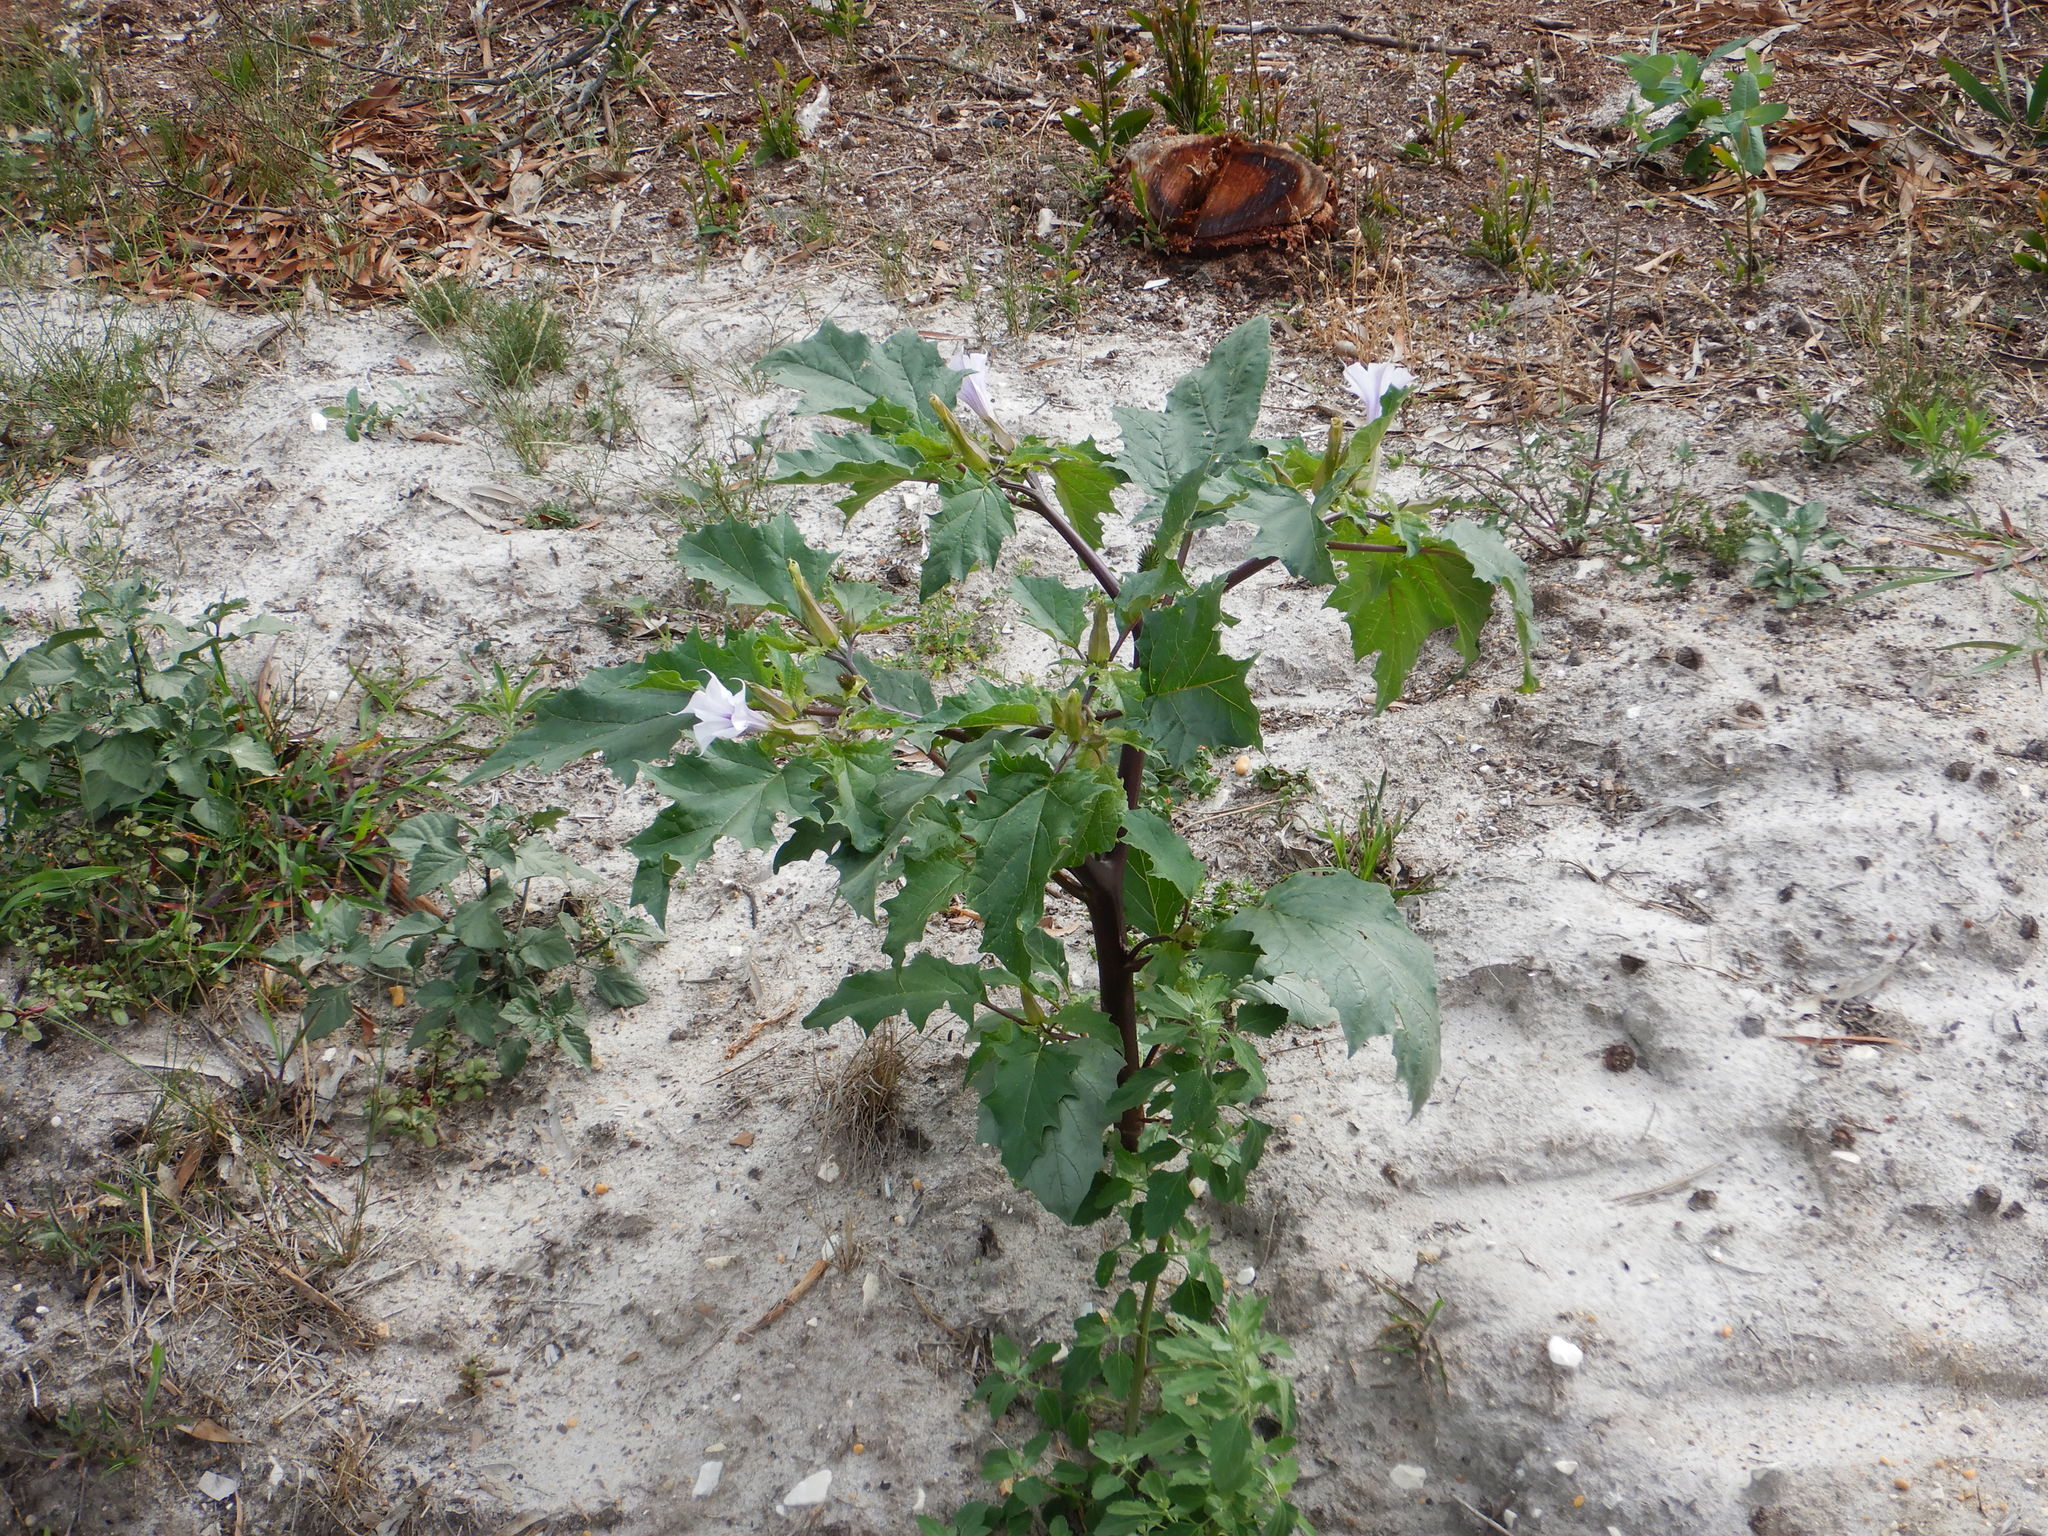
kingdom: Plantae
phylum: Tracheophyta
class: Magnoliopsida
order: Solanales
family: Solanaceae
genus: Datura
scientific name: Datura stramonium
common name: Thorn-apple
